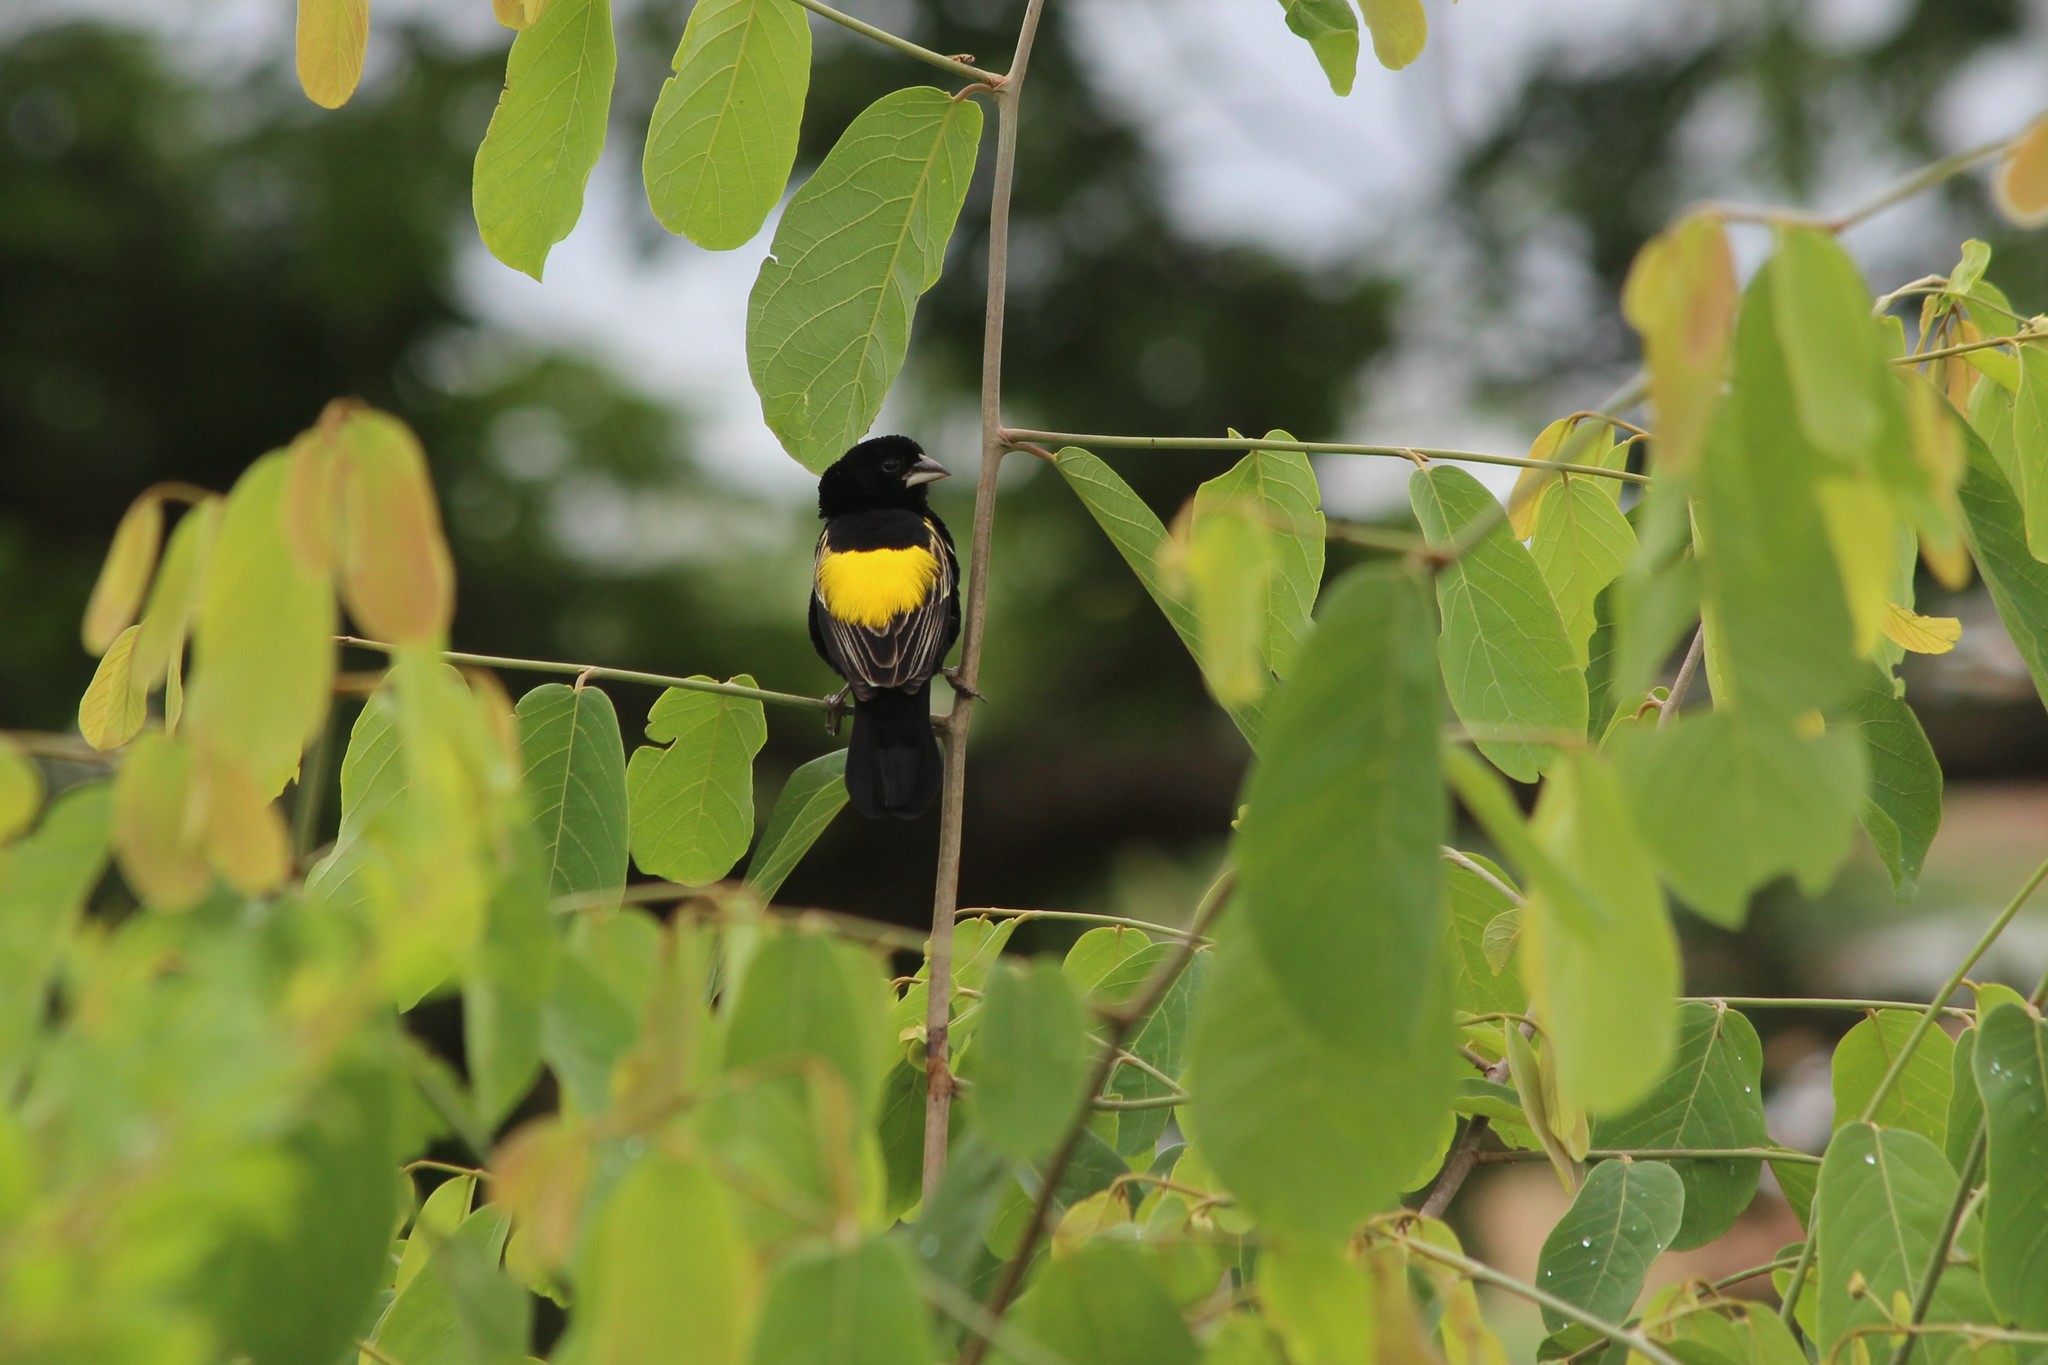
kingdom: Animalia
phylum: Chordata
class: Aves
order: Passeriformes
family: Ploceidae
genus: Euplectes
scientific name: Euplectes capensis
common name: Yellow bishop
